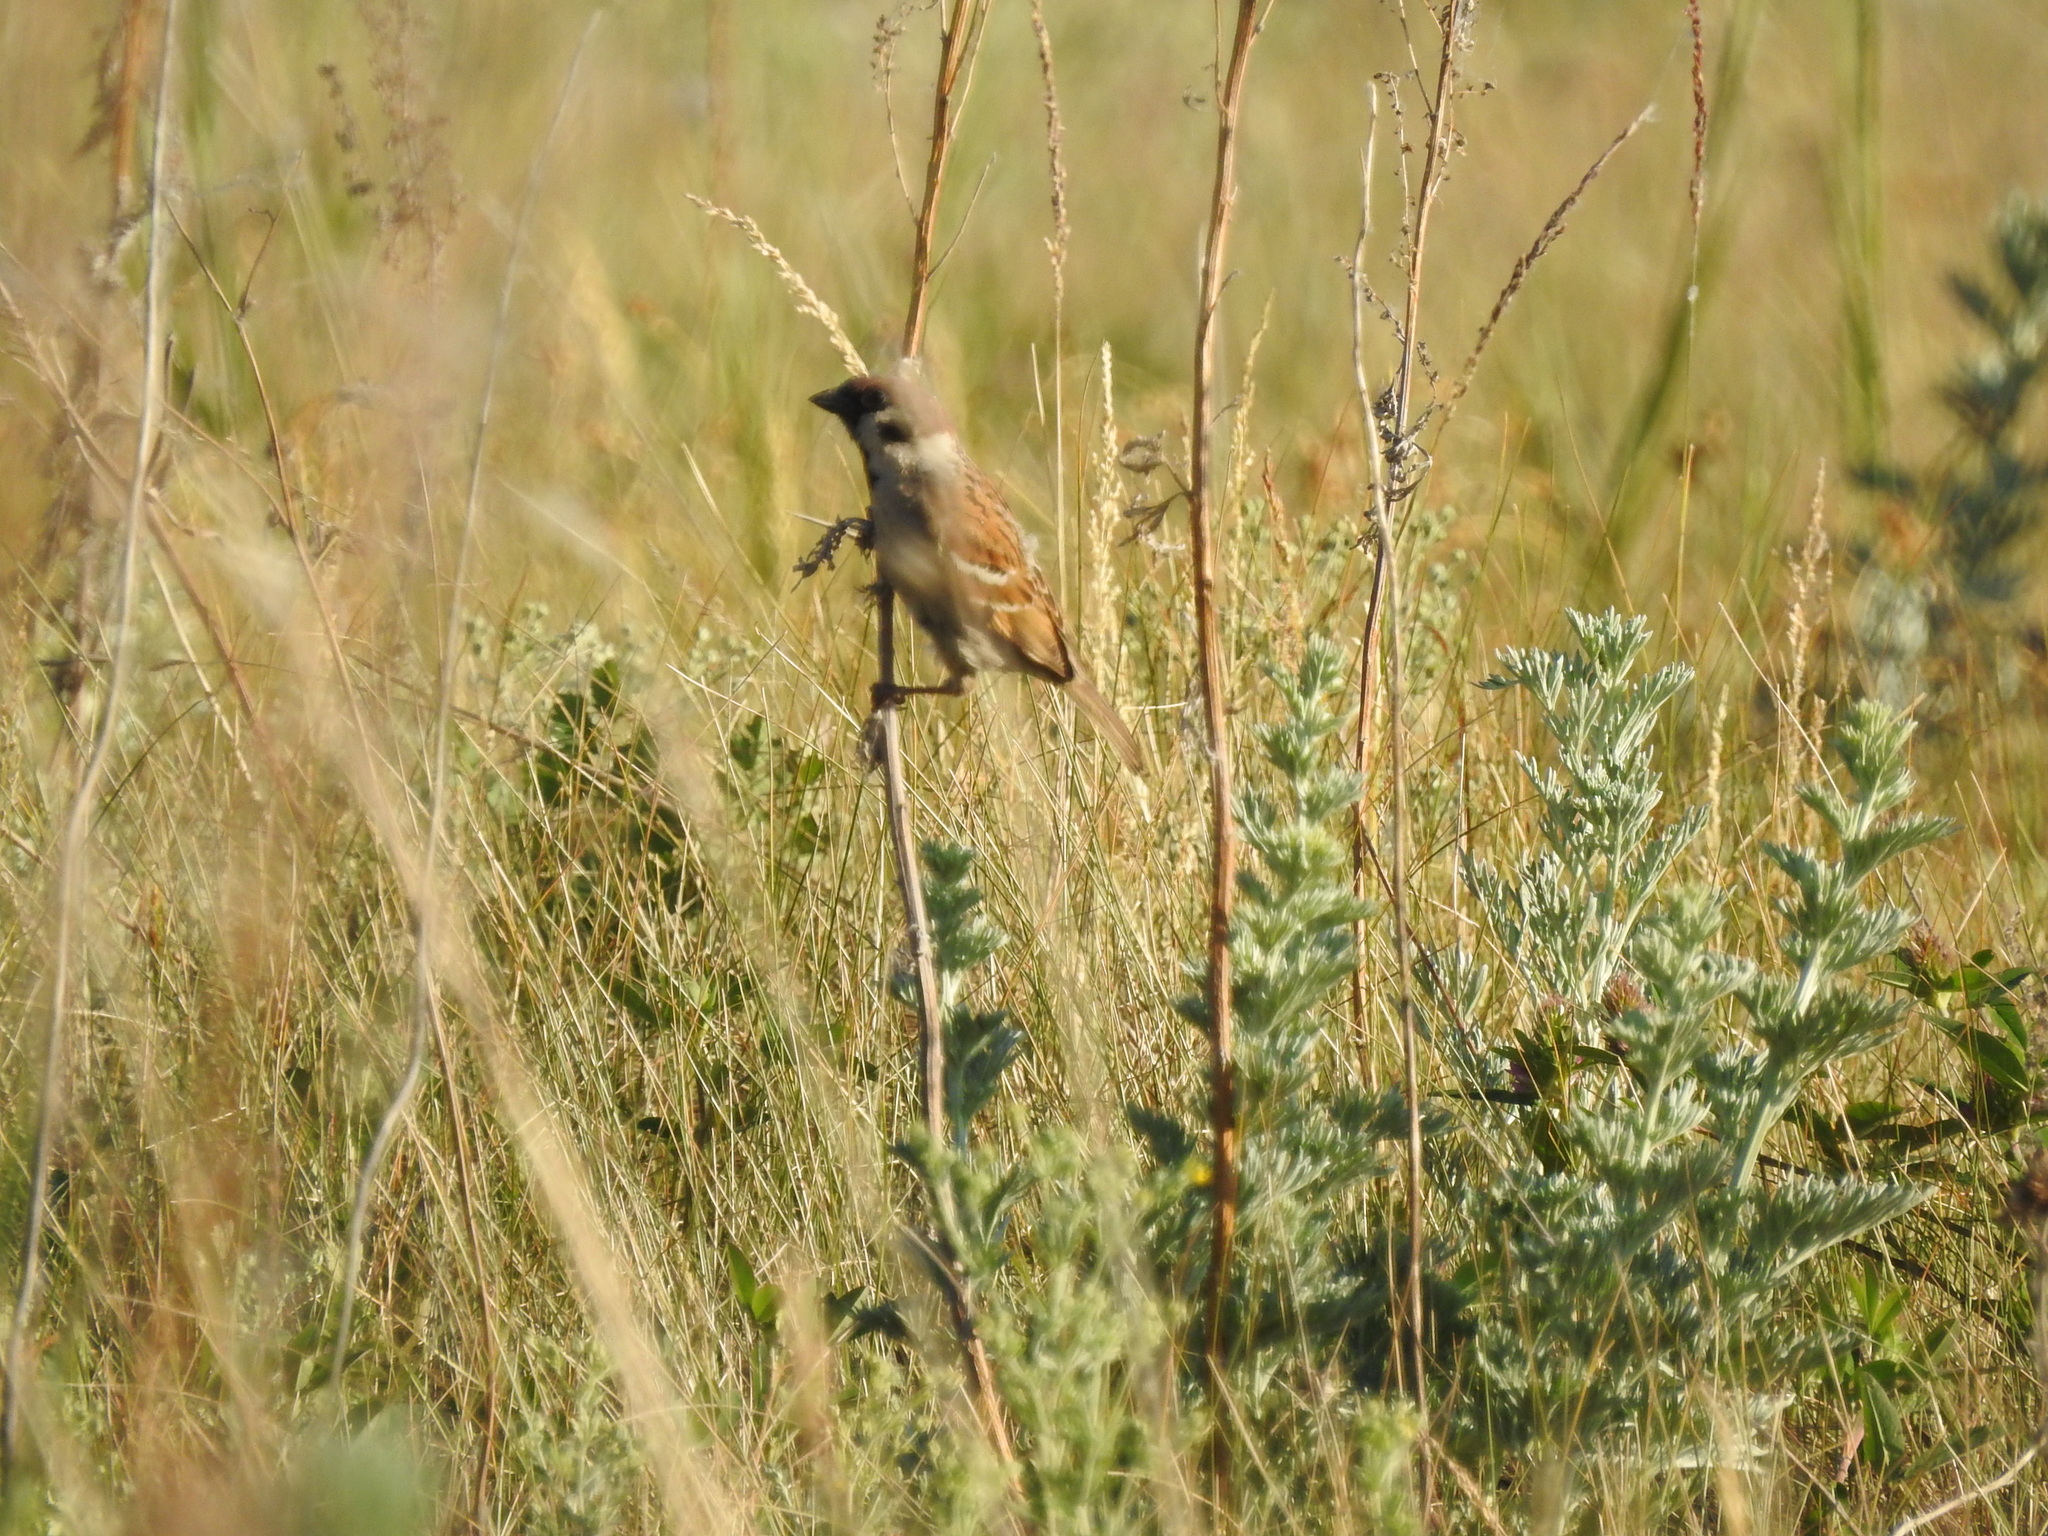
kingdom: Animalia
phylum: Chordata
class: Aves
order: Passeriformes
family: Passeridae
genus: Passer
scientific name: Passer montanus
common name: Eurasian tree sparrow
